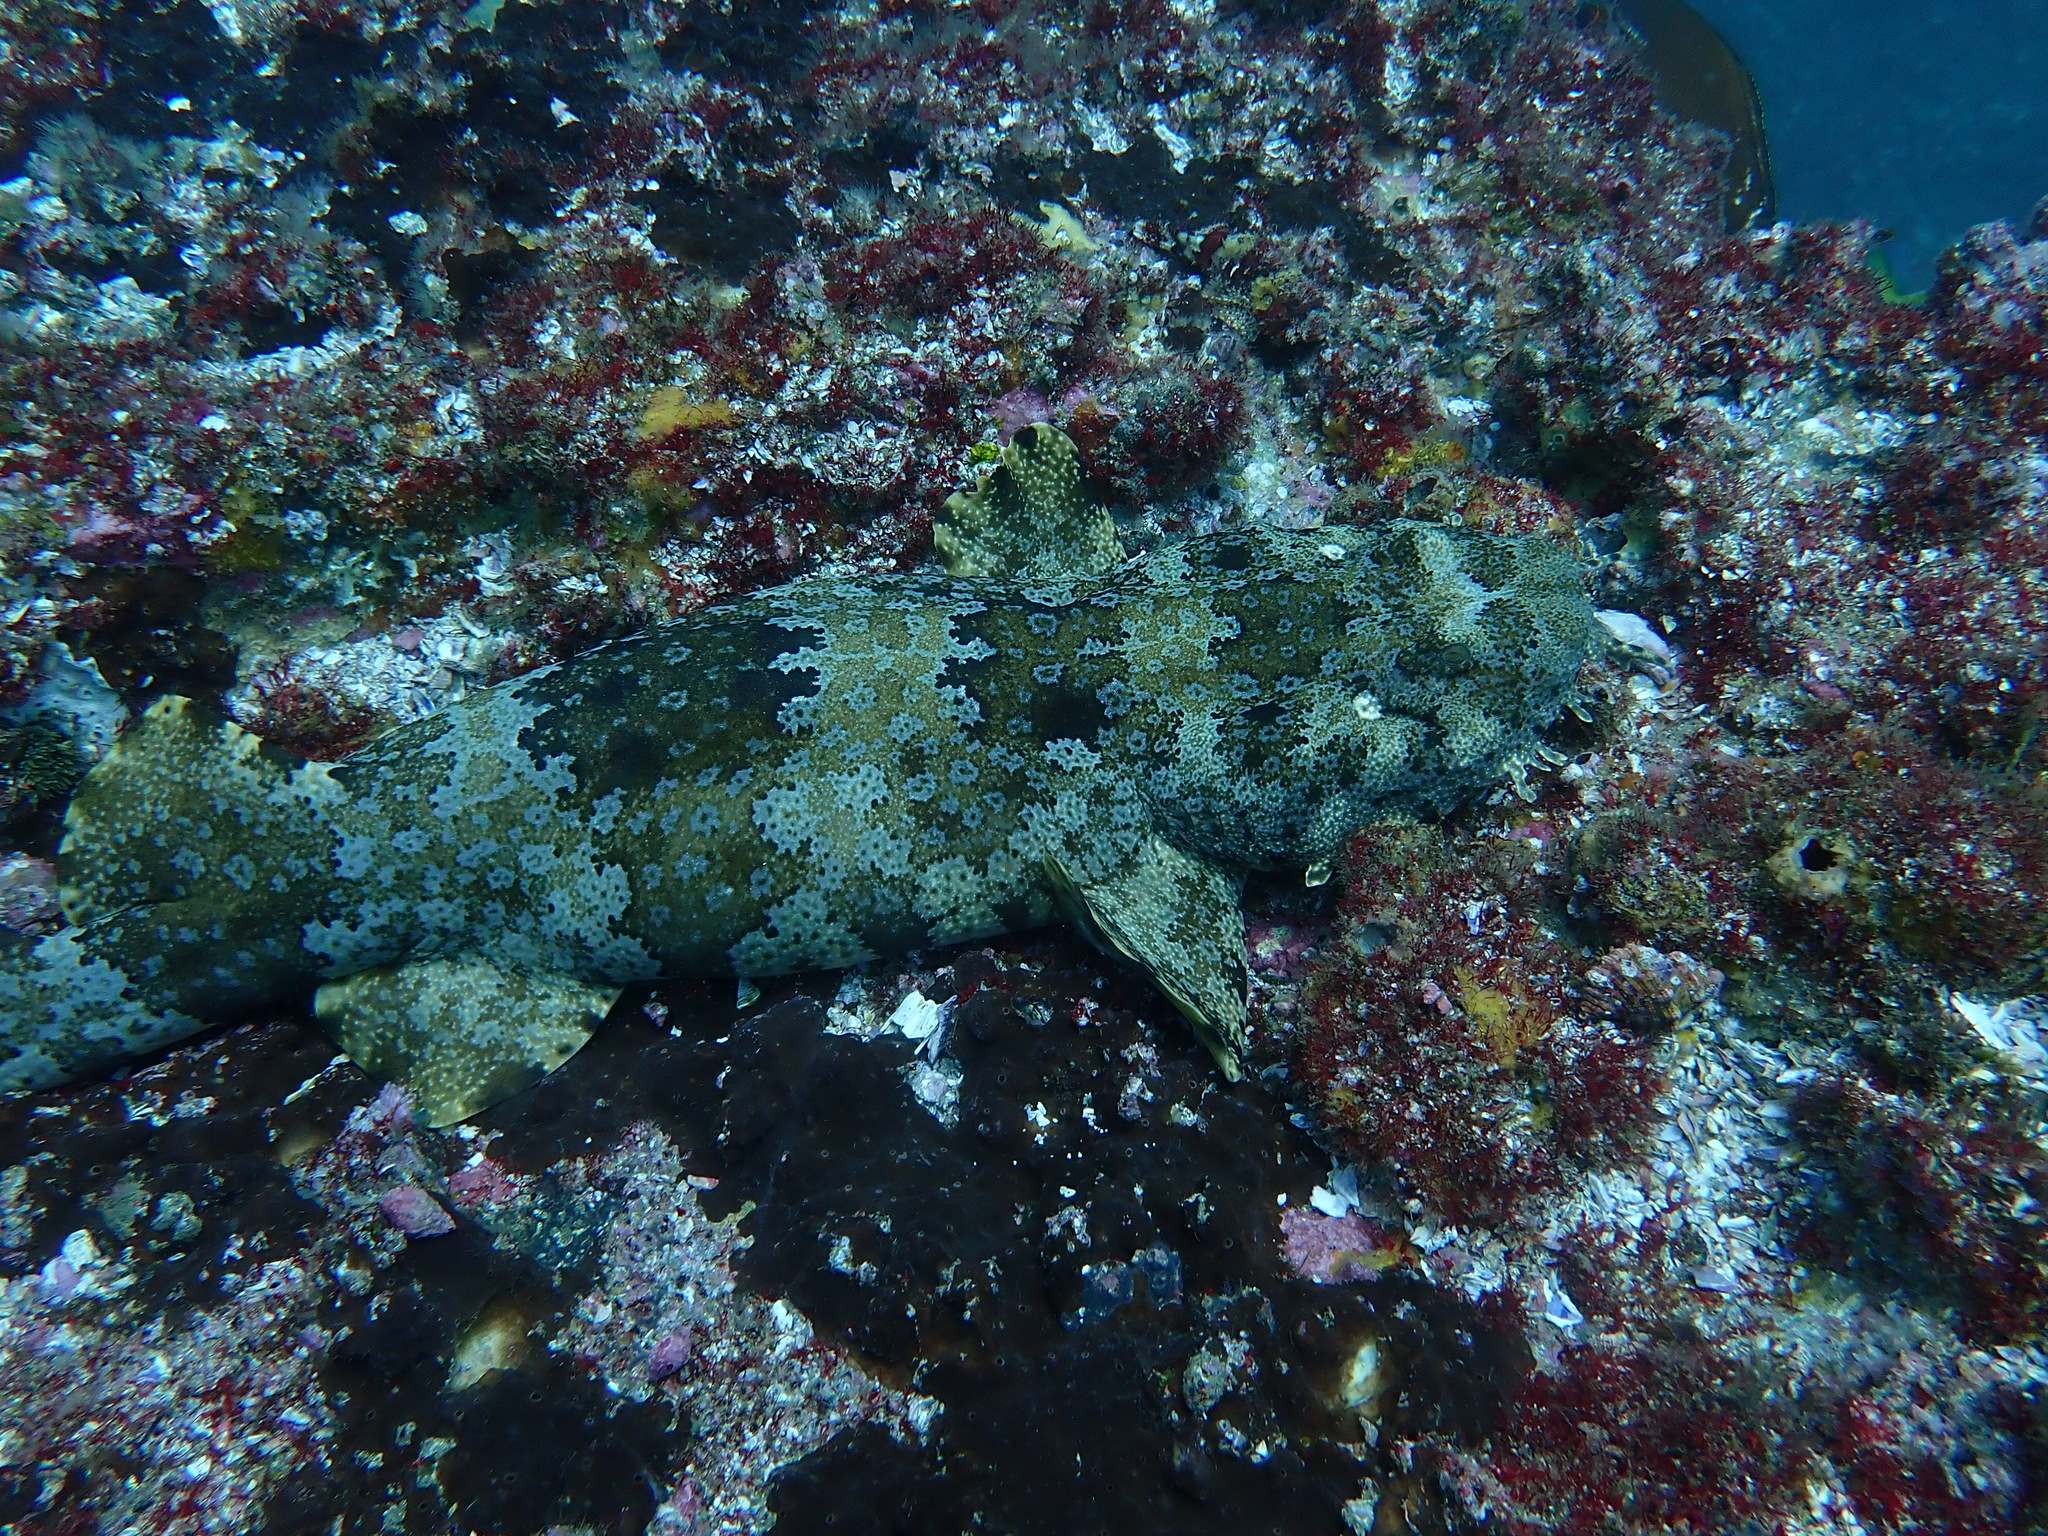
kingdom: Animalia
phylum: Chordata
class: Elasmobranchii
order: Orectolobiformes
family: Orectolobidae
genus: Orectolobus
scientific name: Orectolobus ornatus
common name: Ornate wobbegong
